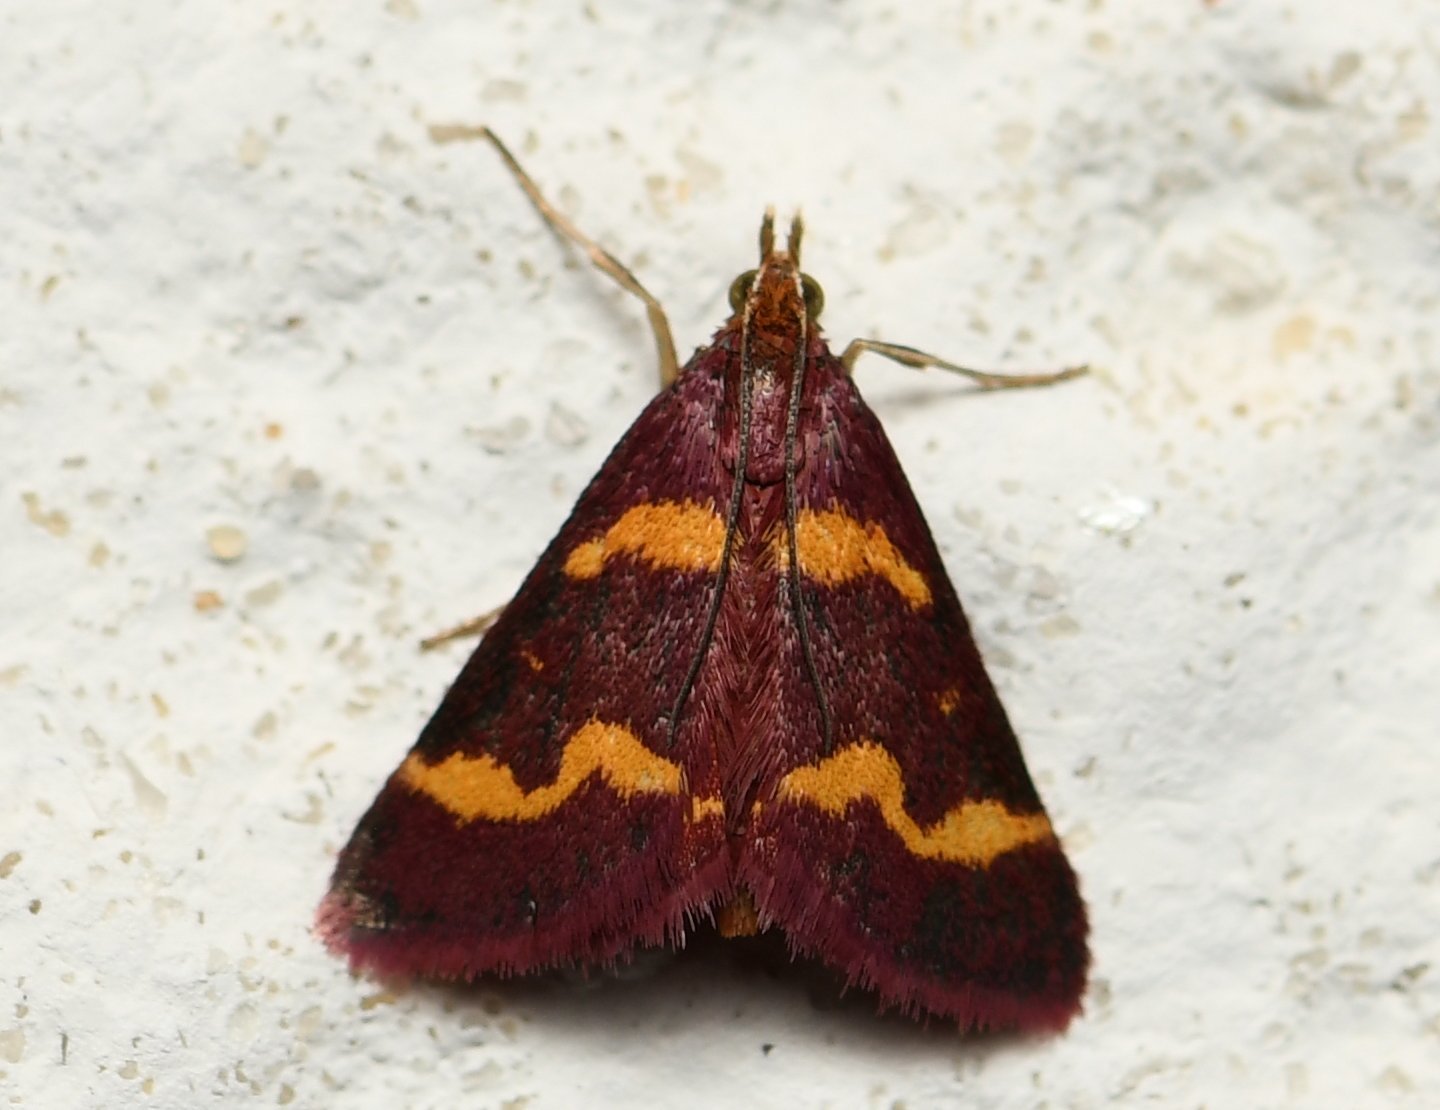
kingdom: Animalia
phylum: Arthropoda
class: Insecta
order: Lepidoptera
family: Crambidae
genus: Pyrausta
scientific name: Pyrausta tyralis
